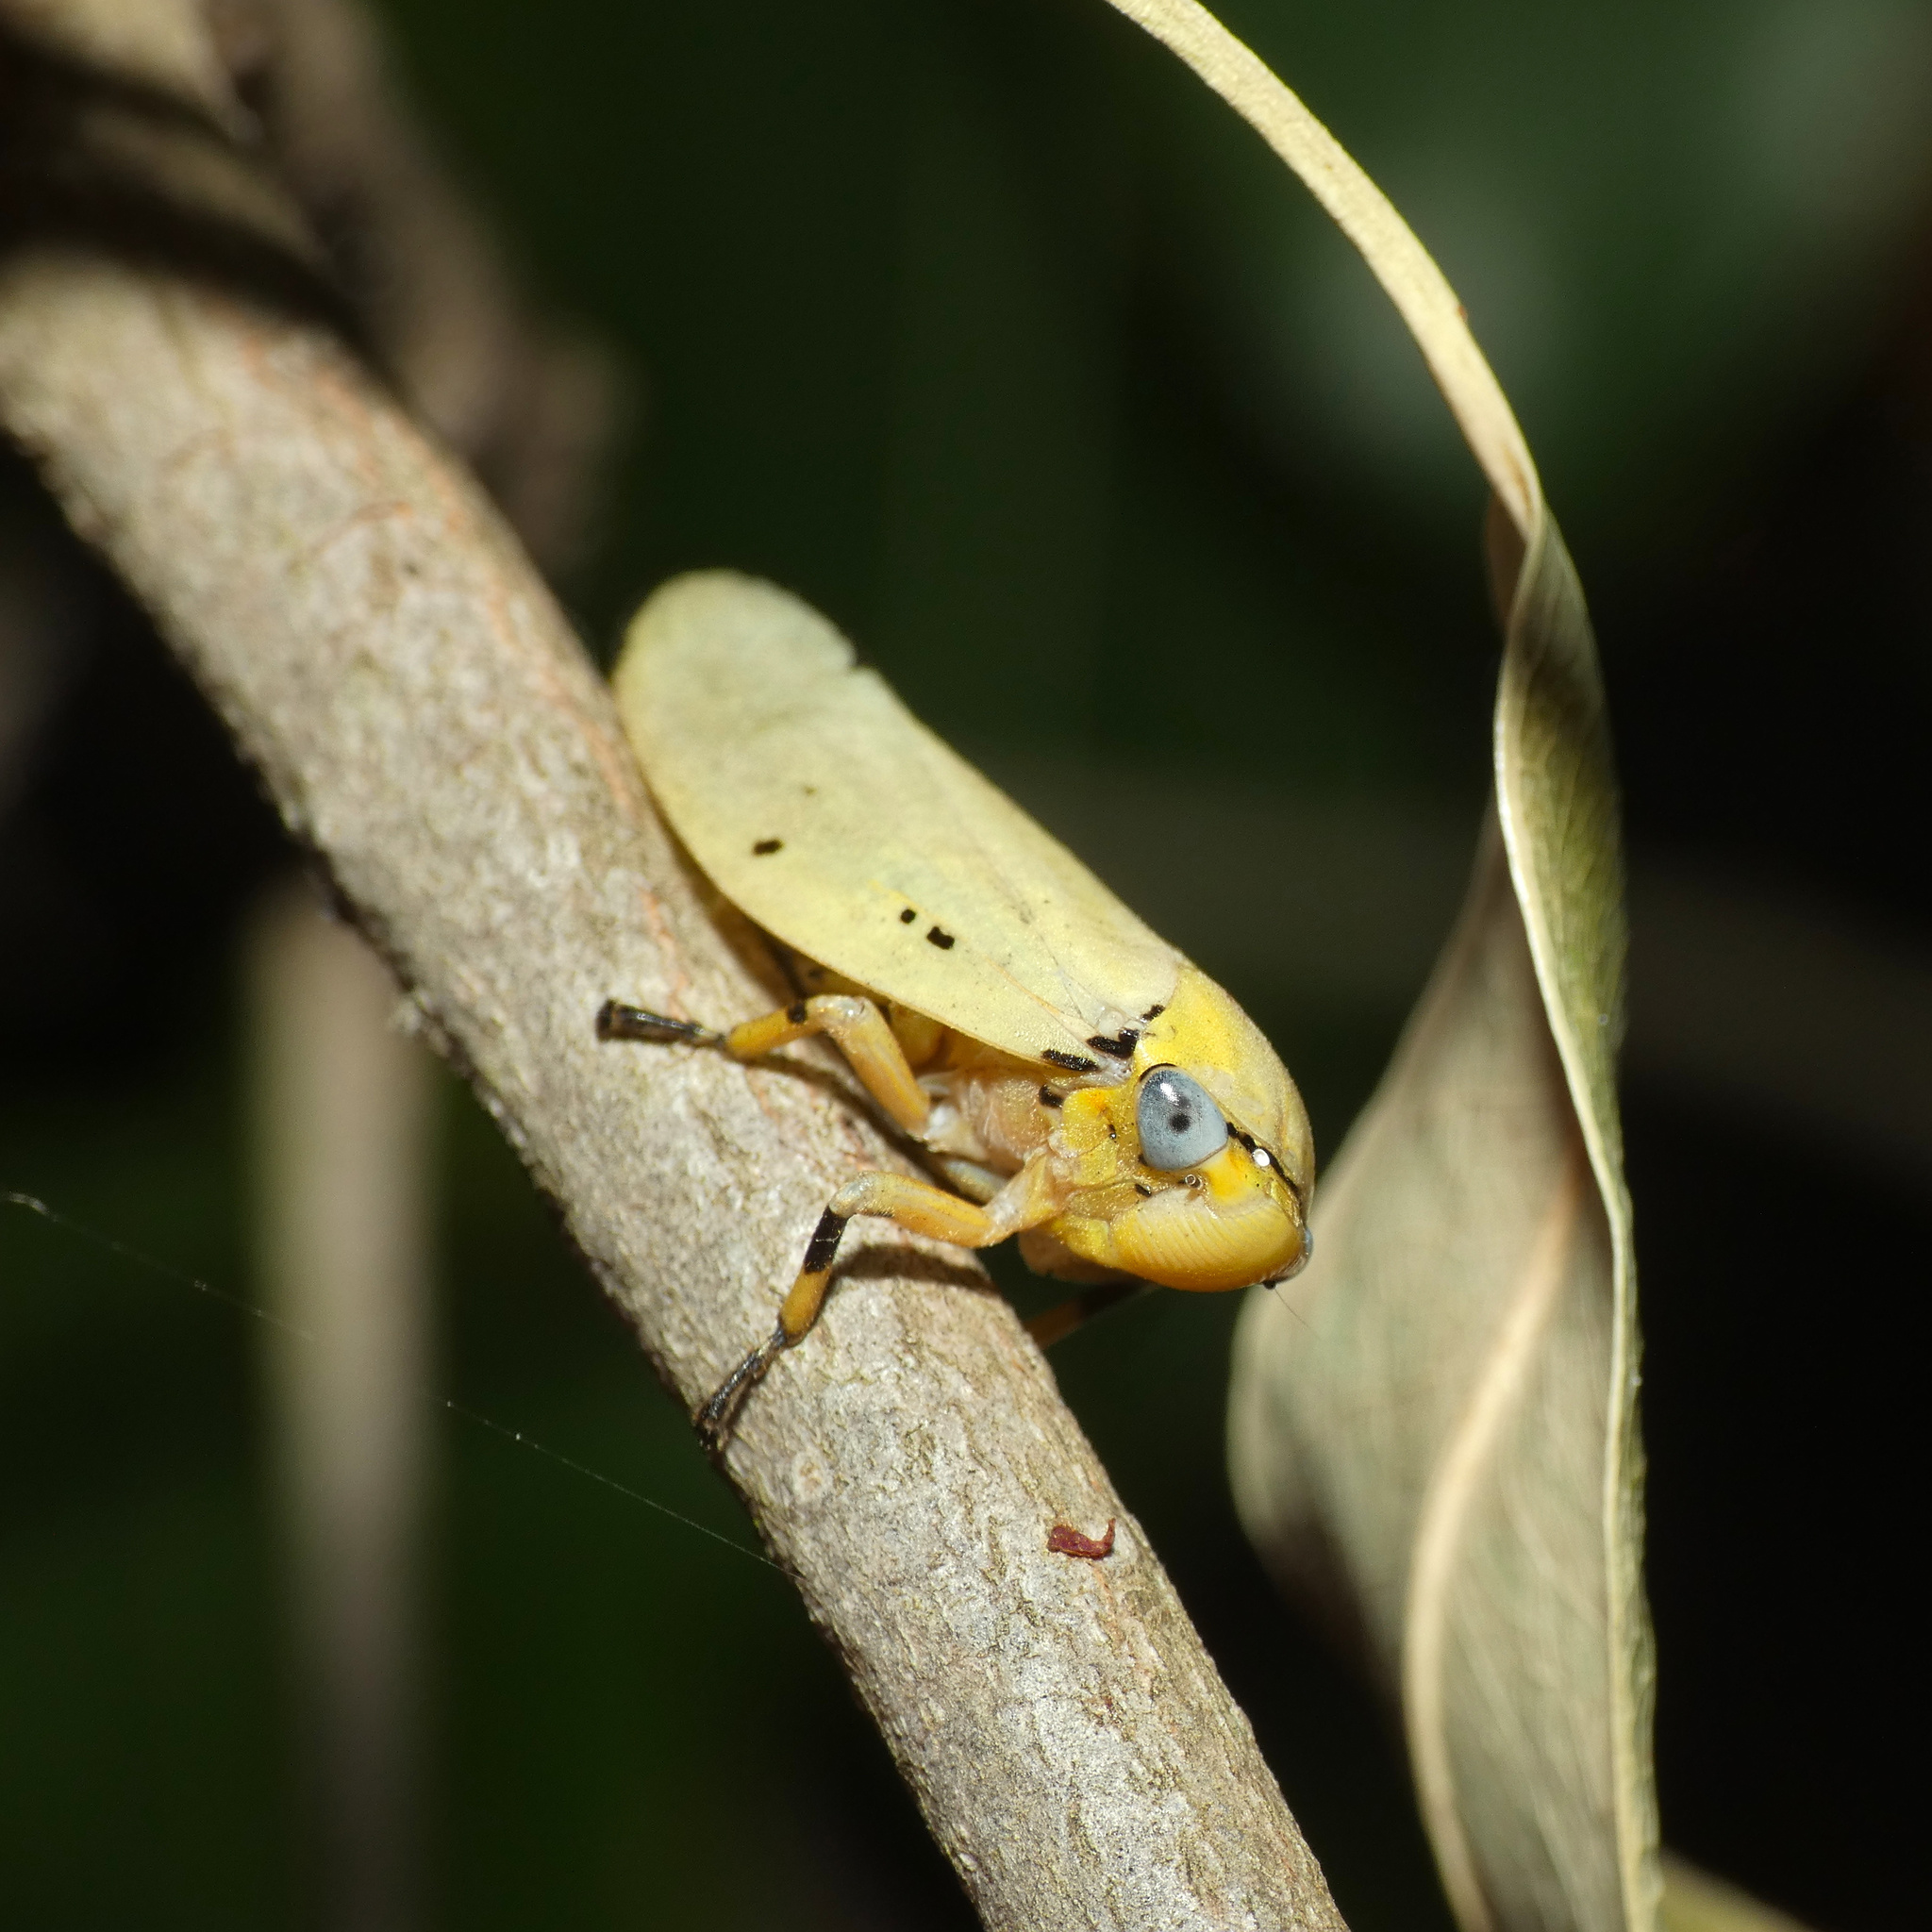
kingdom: Animalia
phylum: Arthropoda
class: Insecta
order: Hemiptera
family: Aphrophoridae
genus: Ptyelus
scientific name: Ptyelus flavescens
